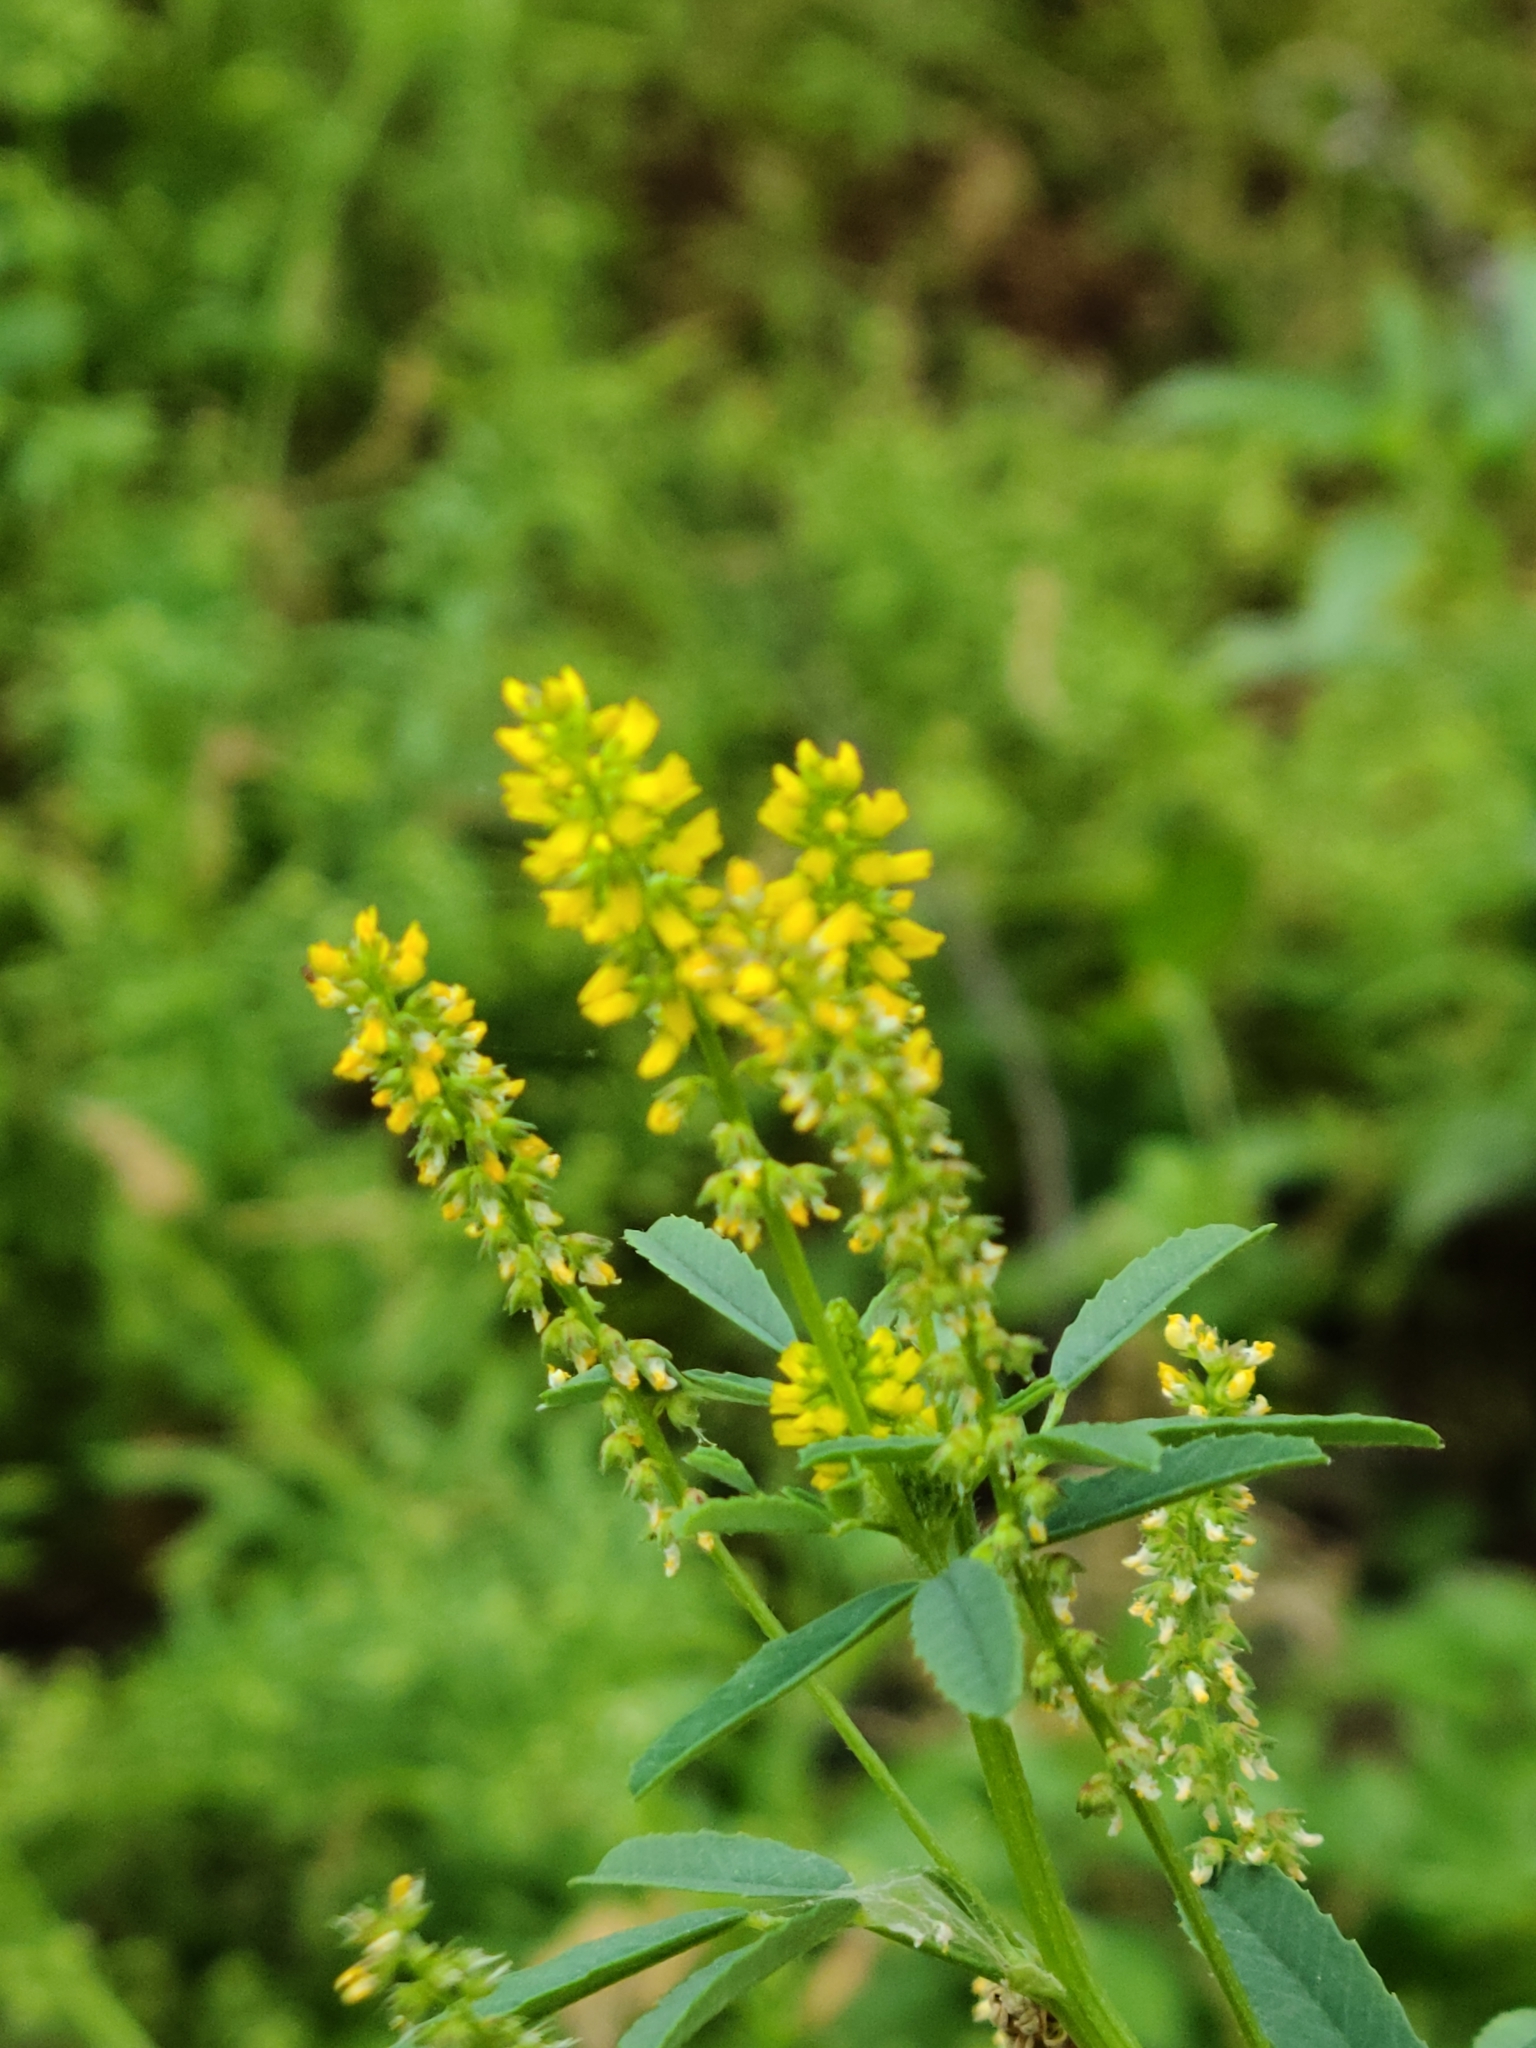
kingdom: Plantae
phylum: Tracheophyta
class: Magnoliopsida
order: Fabales
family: Fabaceae
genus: Melilotus
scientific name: Melilotus indicus
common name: Small melilot
